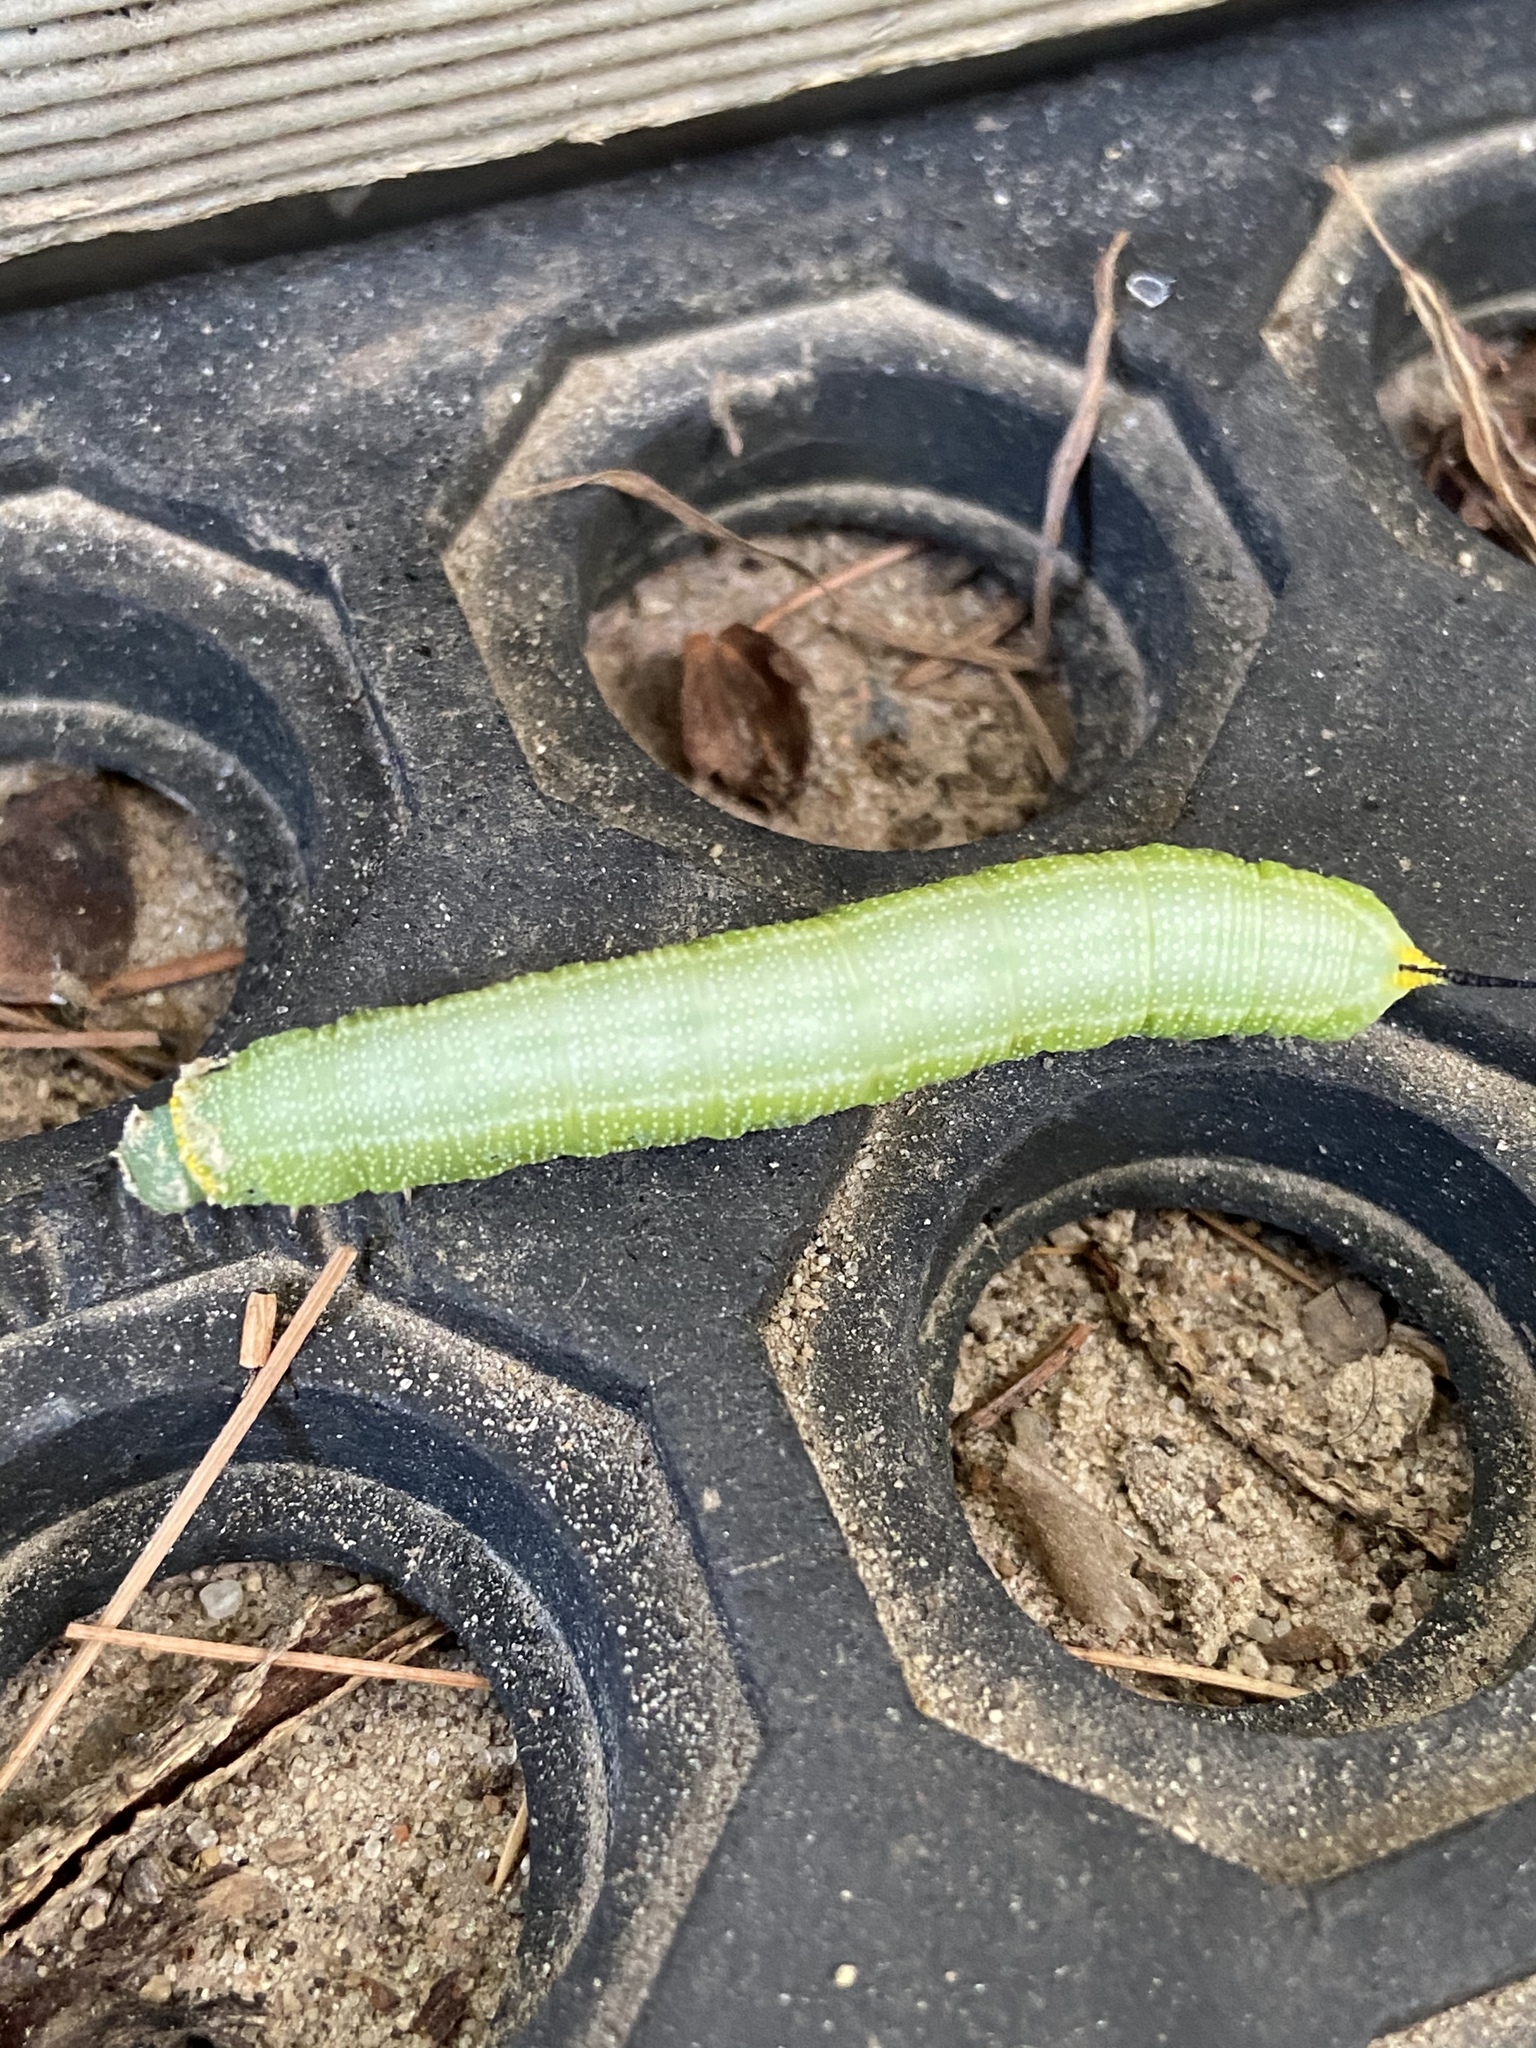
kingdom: Animalia
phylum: Arthropoda
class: Insecta
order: Lepidoptera
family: Sphingidae
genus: Hemaris
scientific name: Hemaris diffinis
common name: Bumblebee moth
